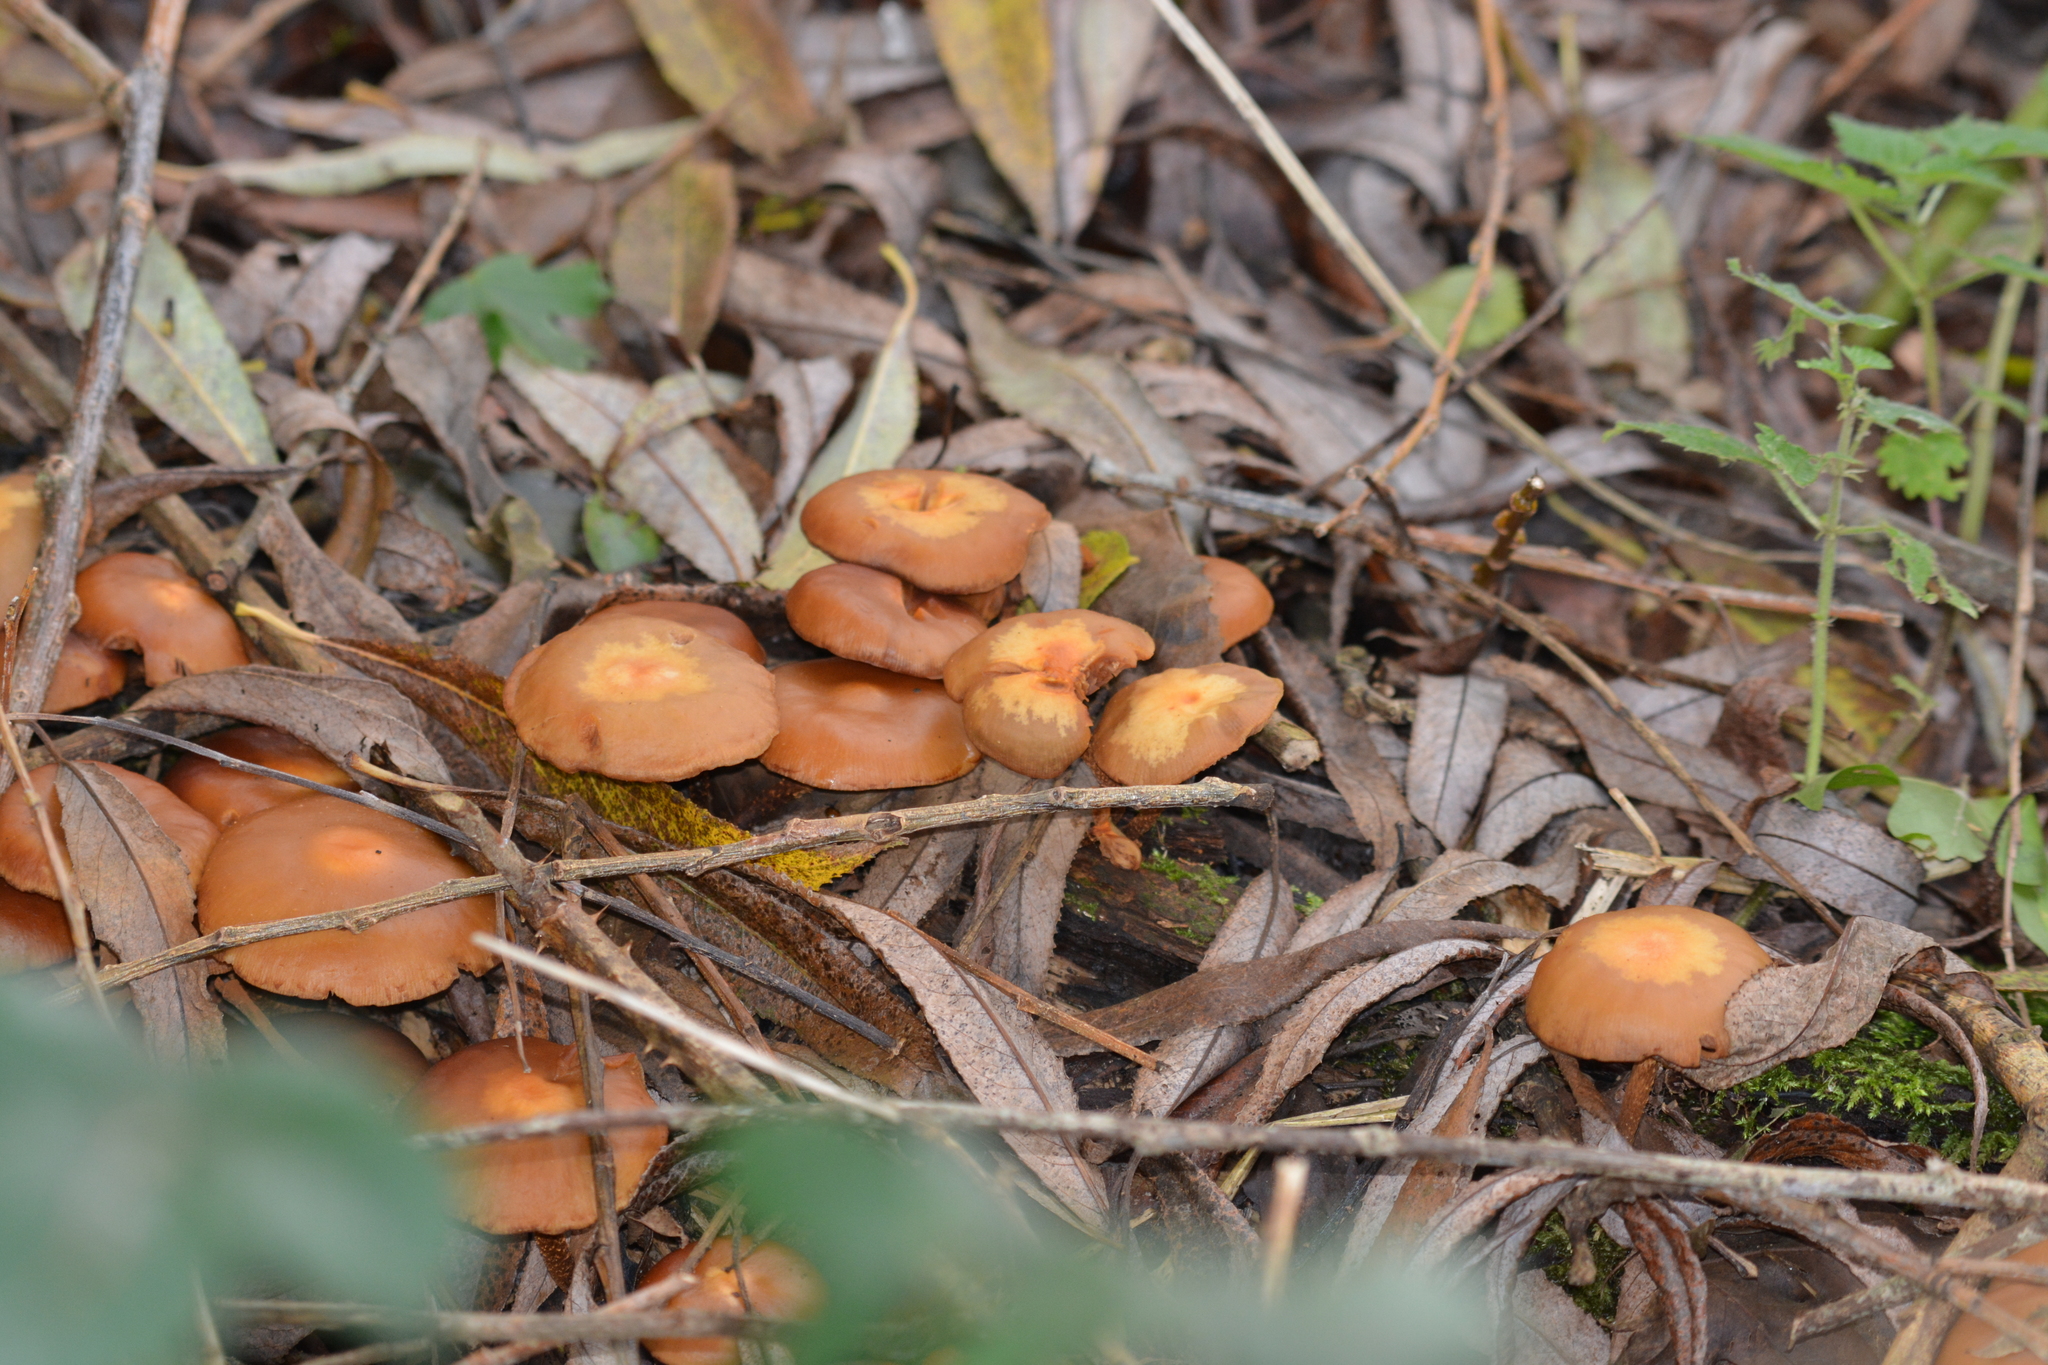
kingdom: Fungi
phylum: Basidiomycota
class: Agaricomycetes
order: Agaricales
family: Strophariaceae
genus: Kuehneromyces
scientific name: Kuehneromyces mutabilis
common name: Sheathed woodtuft
